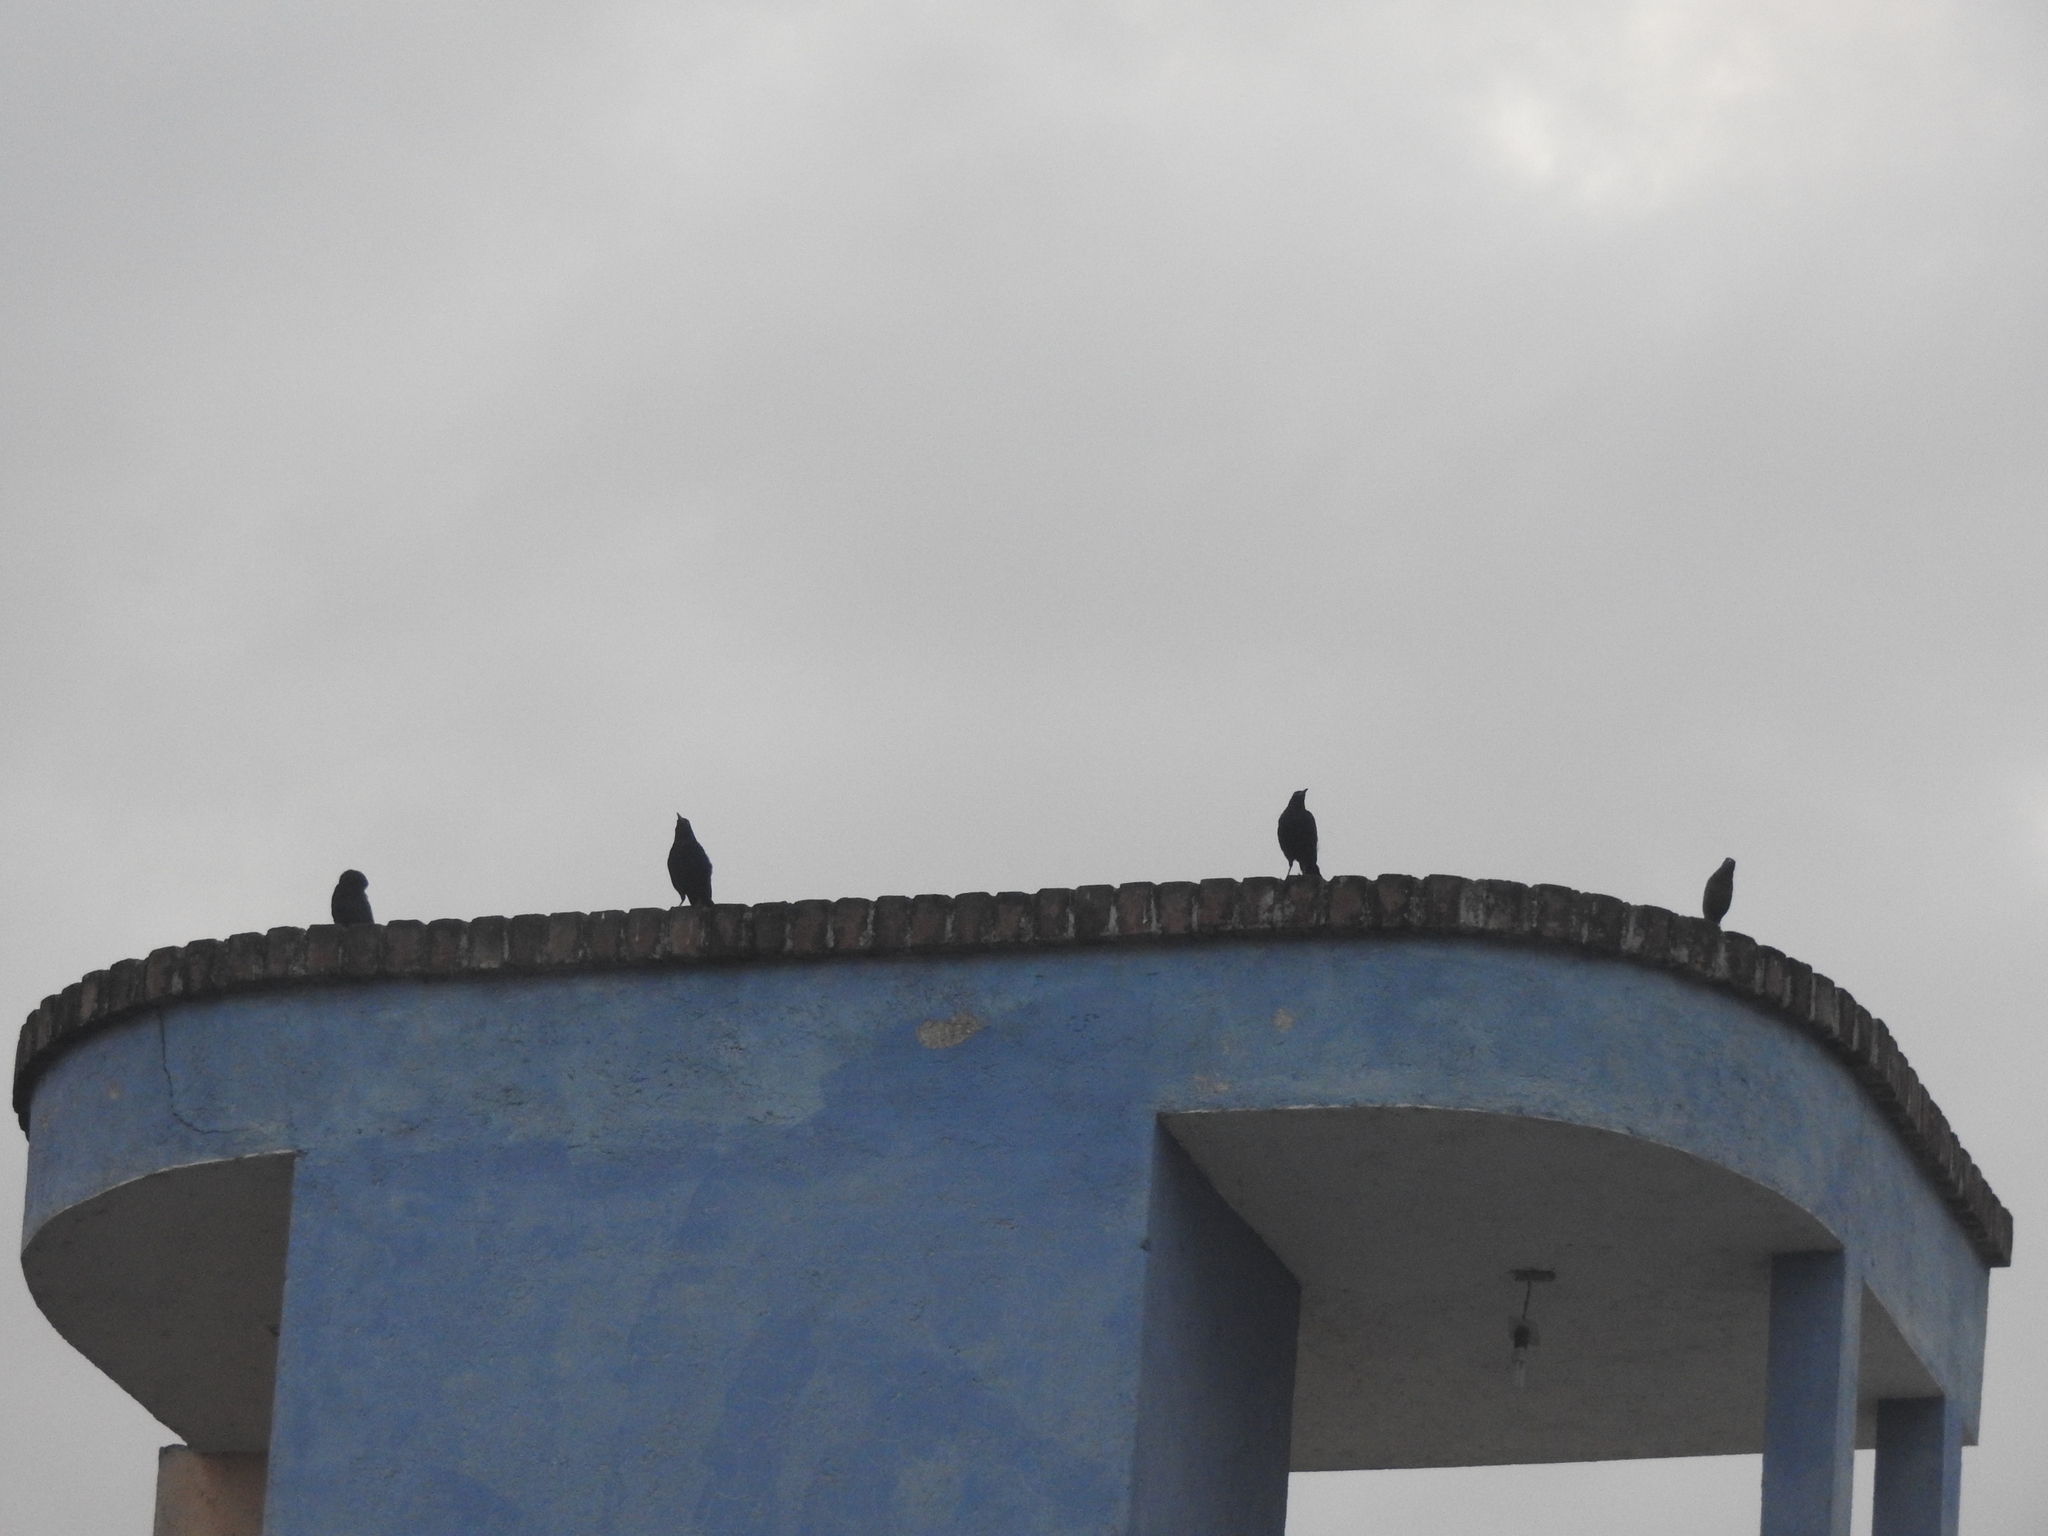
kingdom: Animalia
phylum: Chordata
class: Aves
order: Passeriformes
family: Icteridae
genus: Quiscalus
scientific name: Quiscalus mexicanus
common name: Great-tailed grackle
